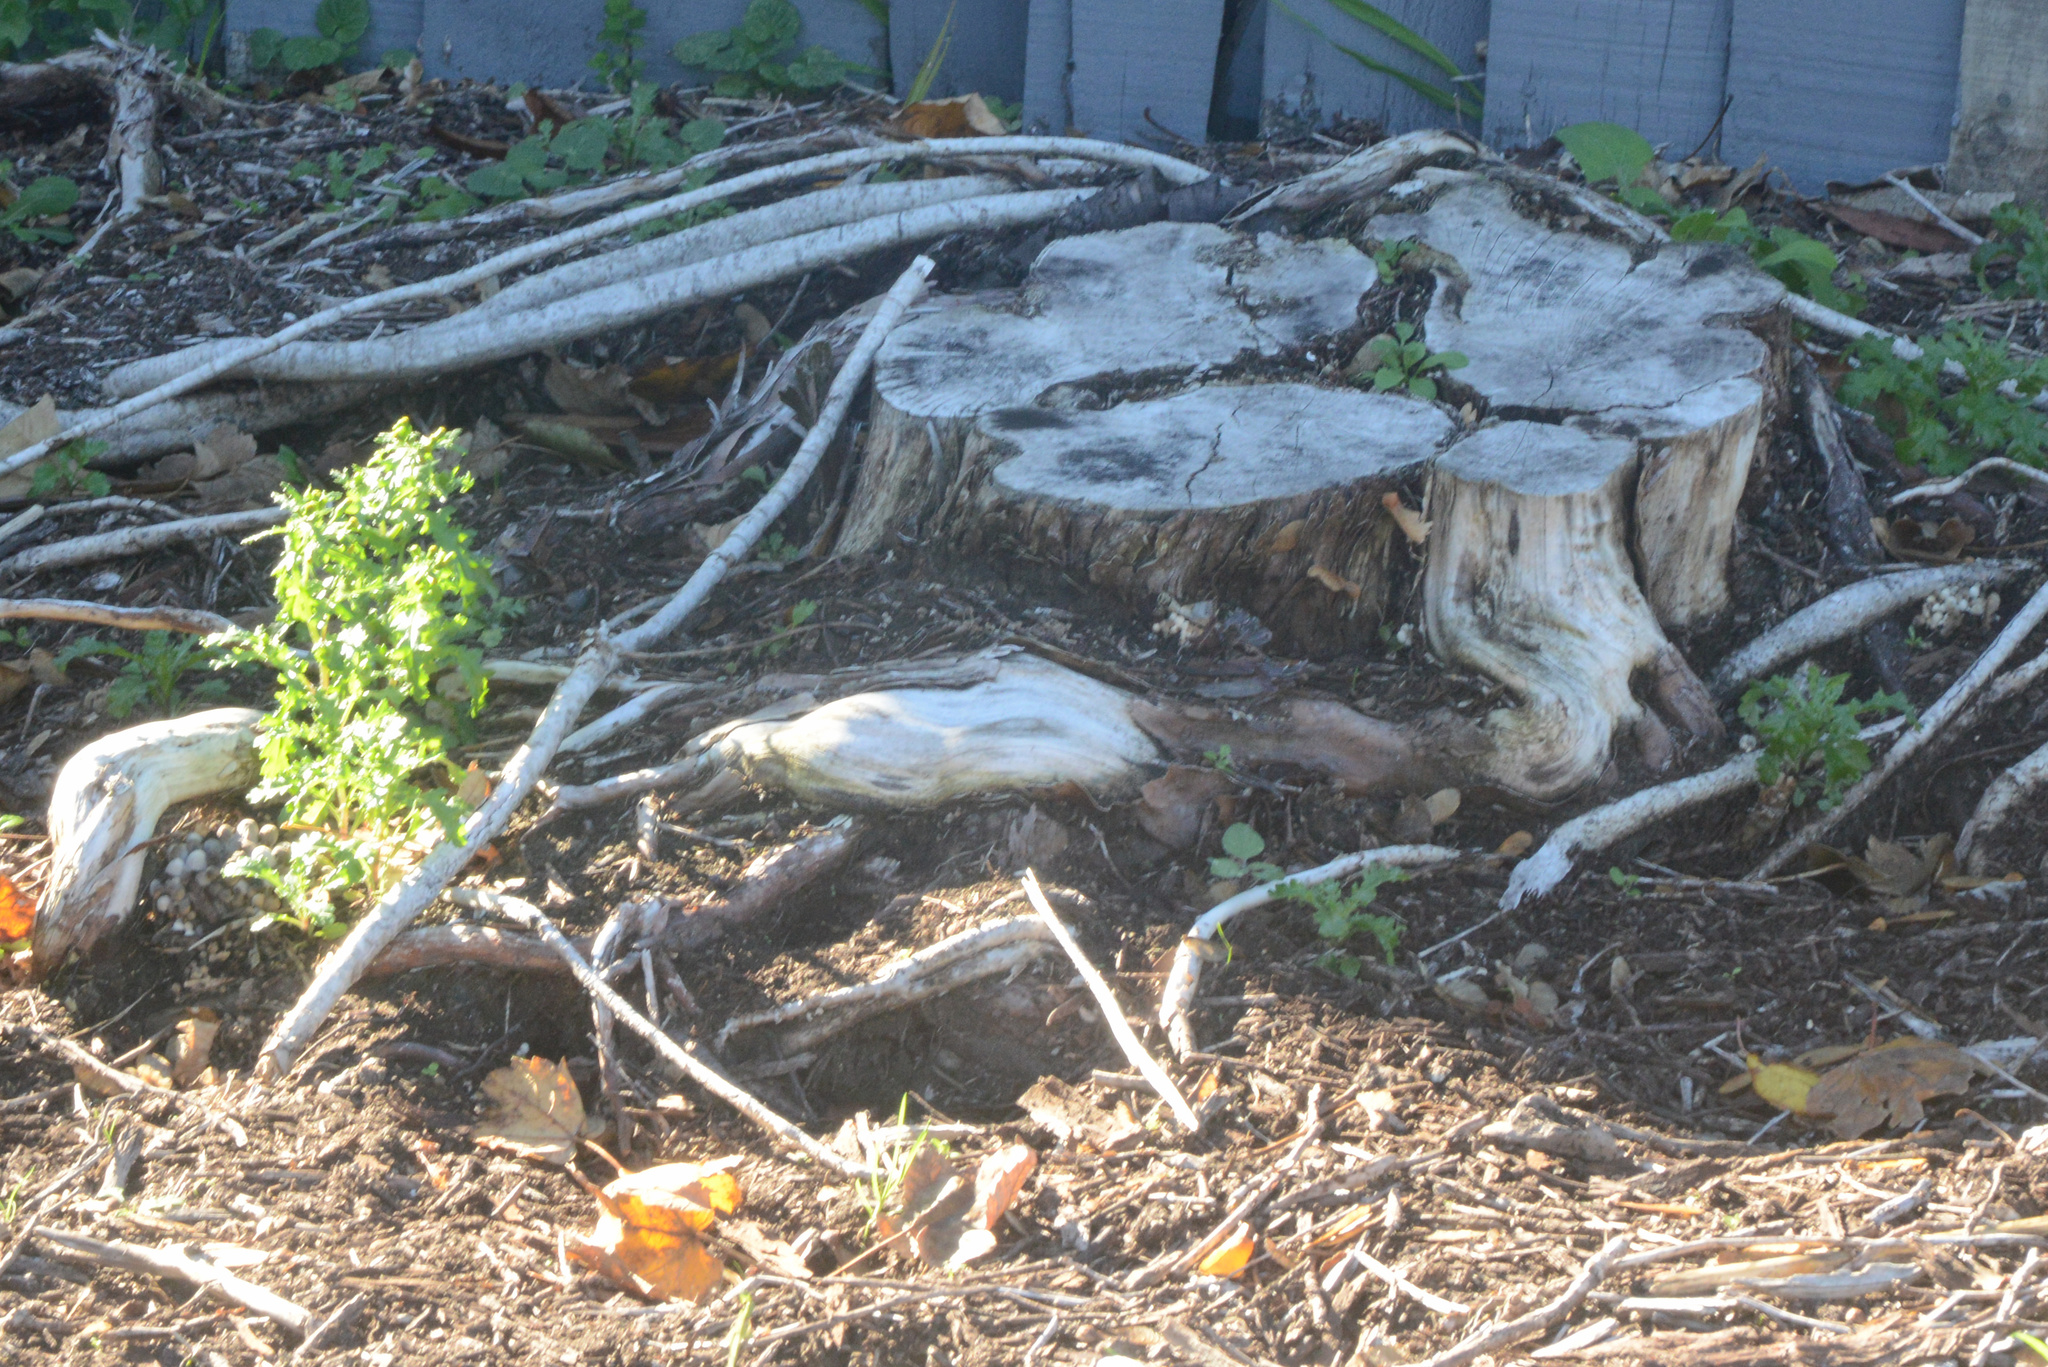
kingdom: Plantae
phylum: Tracheophyta
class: Magnoliopsida
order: Asterales
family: Asteraceae
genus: Senecio
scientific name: Senecio vulgaris
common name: Old-man-in-the-spring
